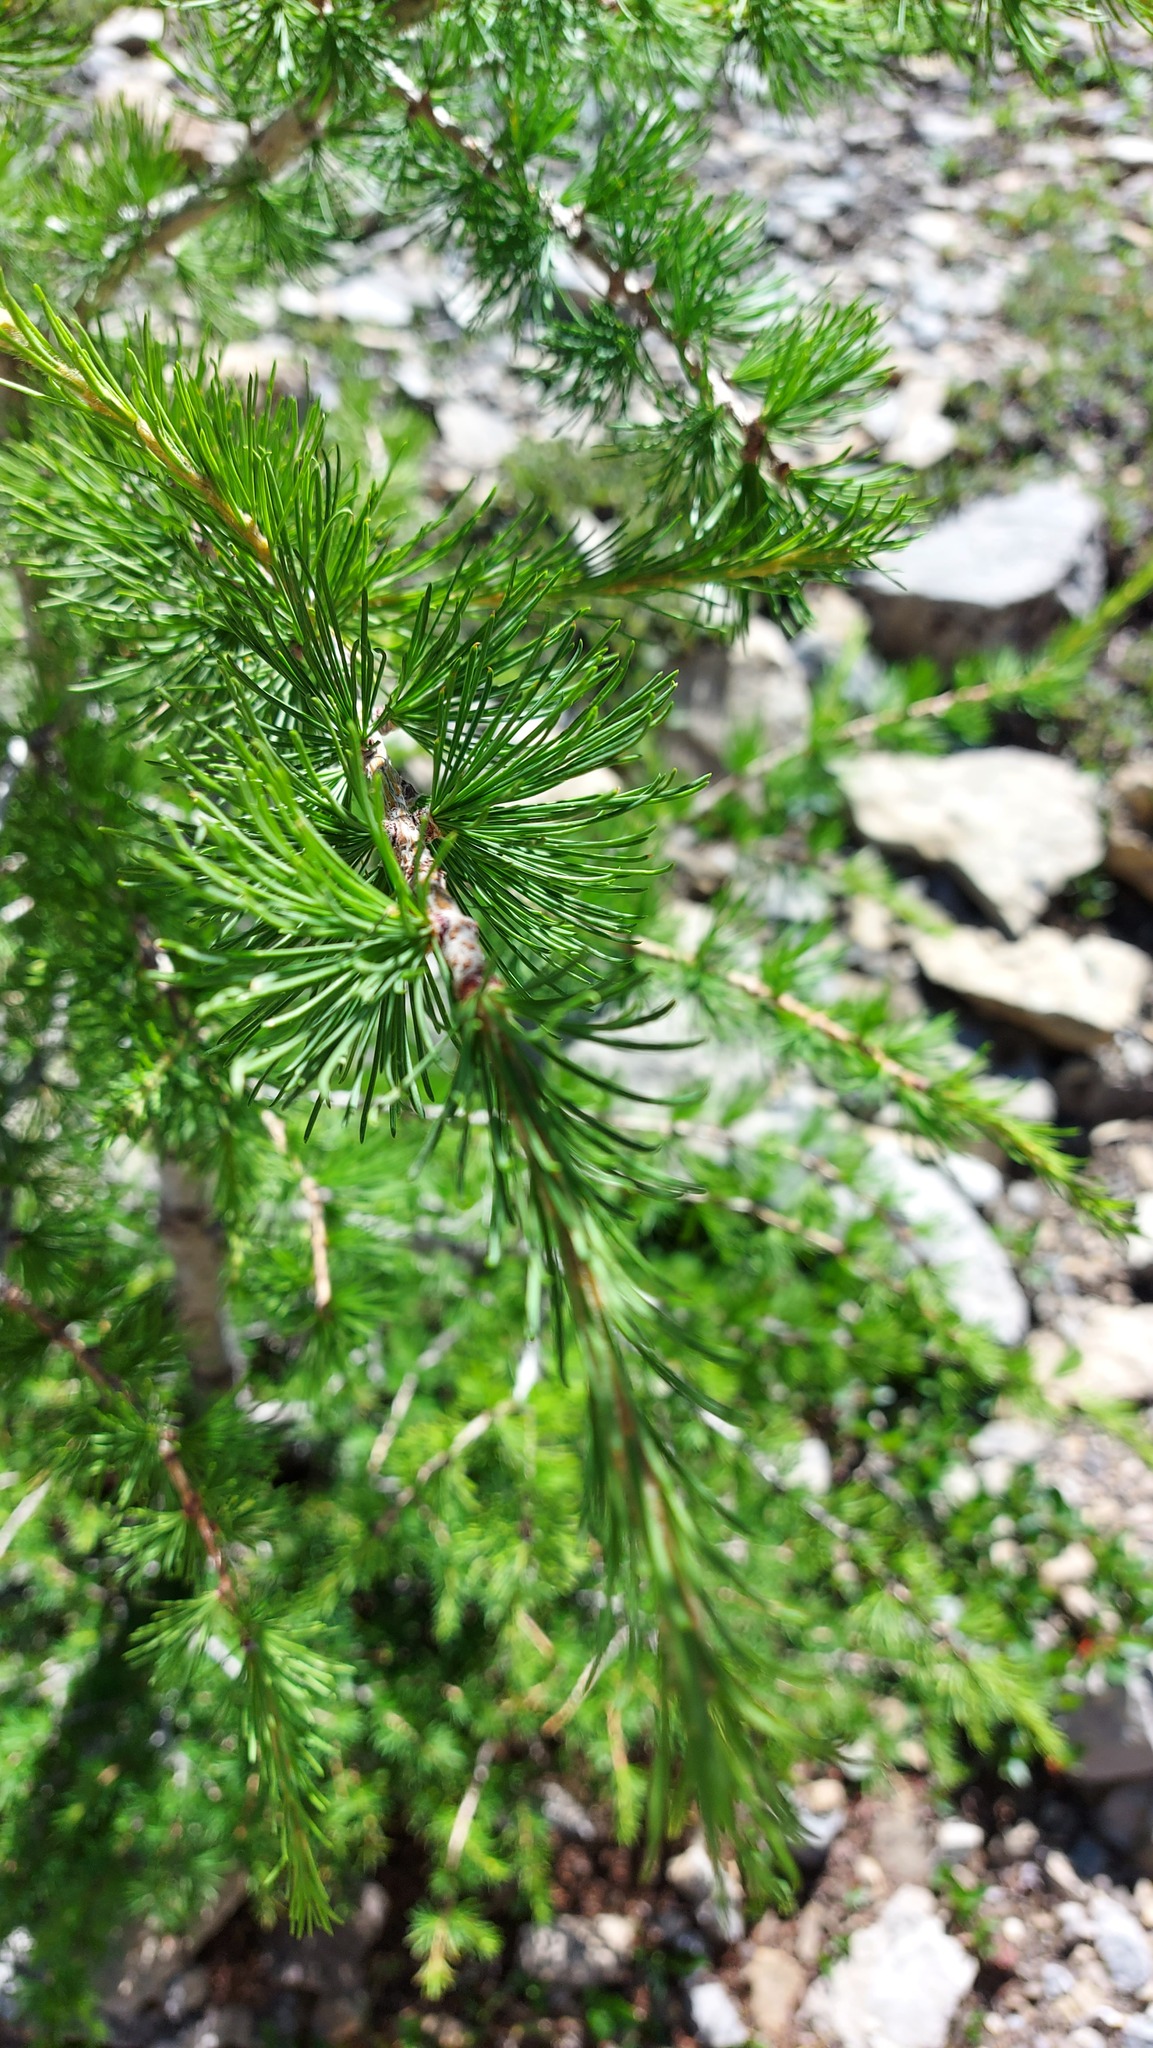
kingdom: Plantae
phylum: Tracheophyta
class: Pinopsida
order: Pinales
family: Pinaceae
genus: Larix
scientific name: Larix lyallii
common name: Alpine larch
